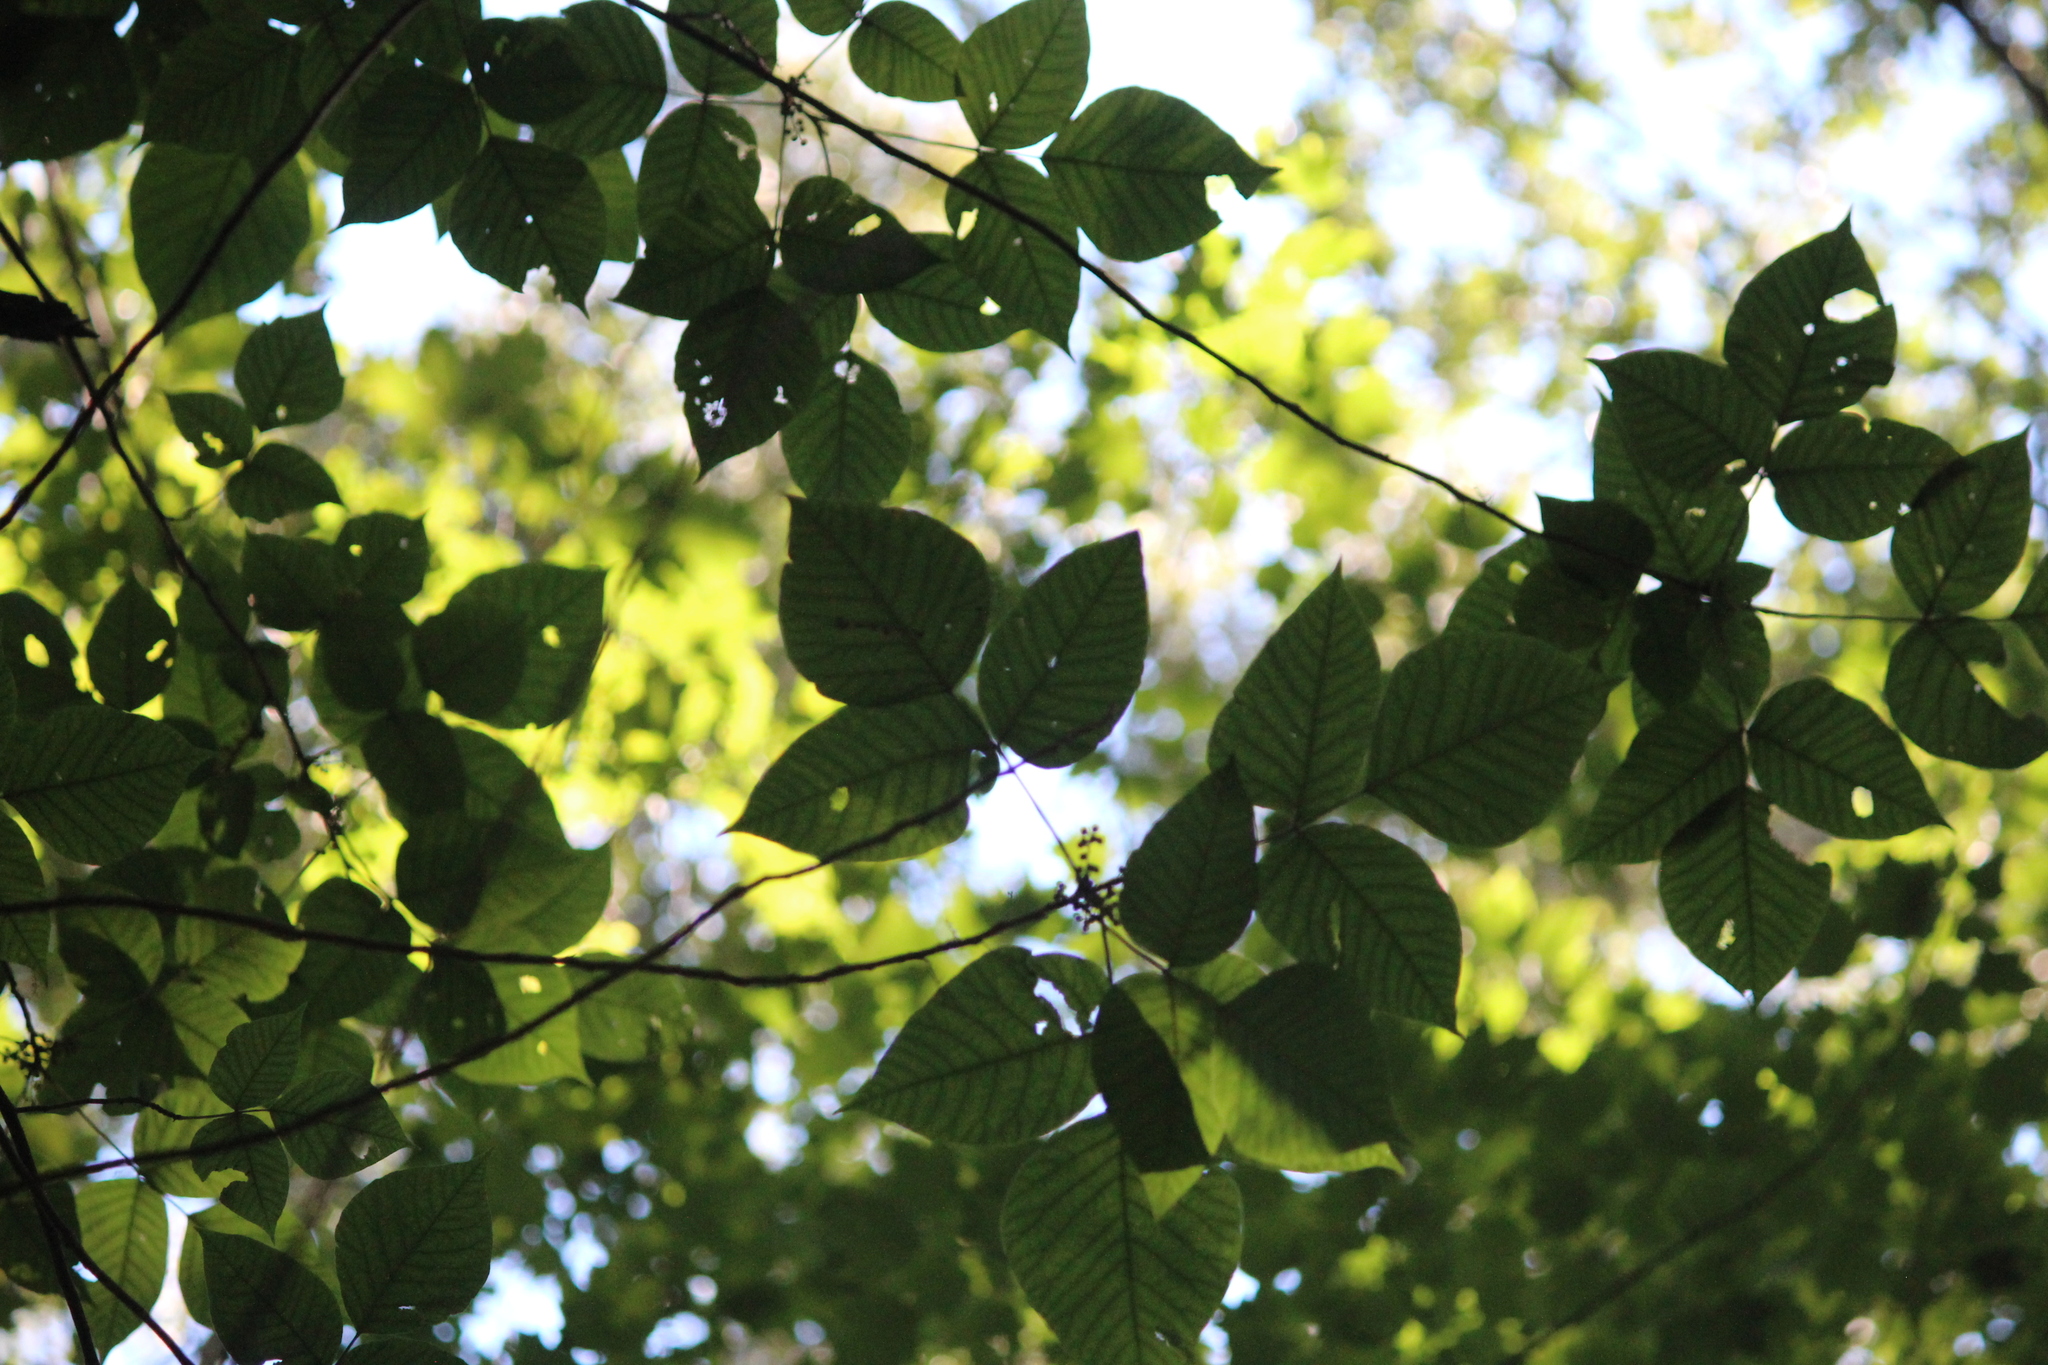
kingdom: Plantae
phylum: Tracheophyta
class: Magnoliopsida
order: Sapindales
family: Anacardiaceae
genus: Toxicodendron
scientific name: Toxicodendron radicans
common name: Poison ivy
